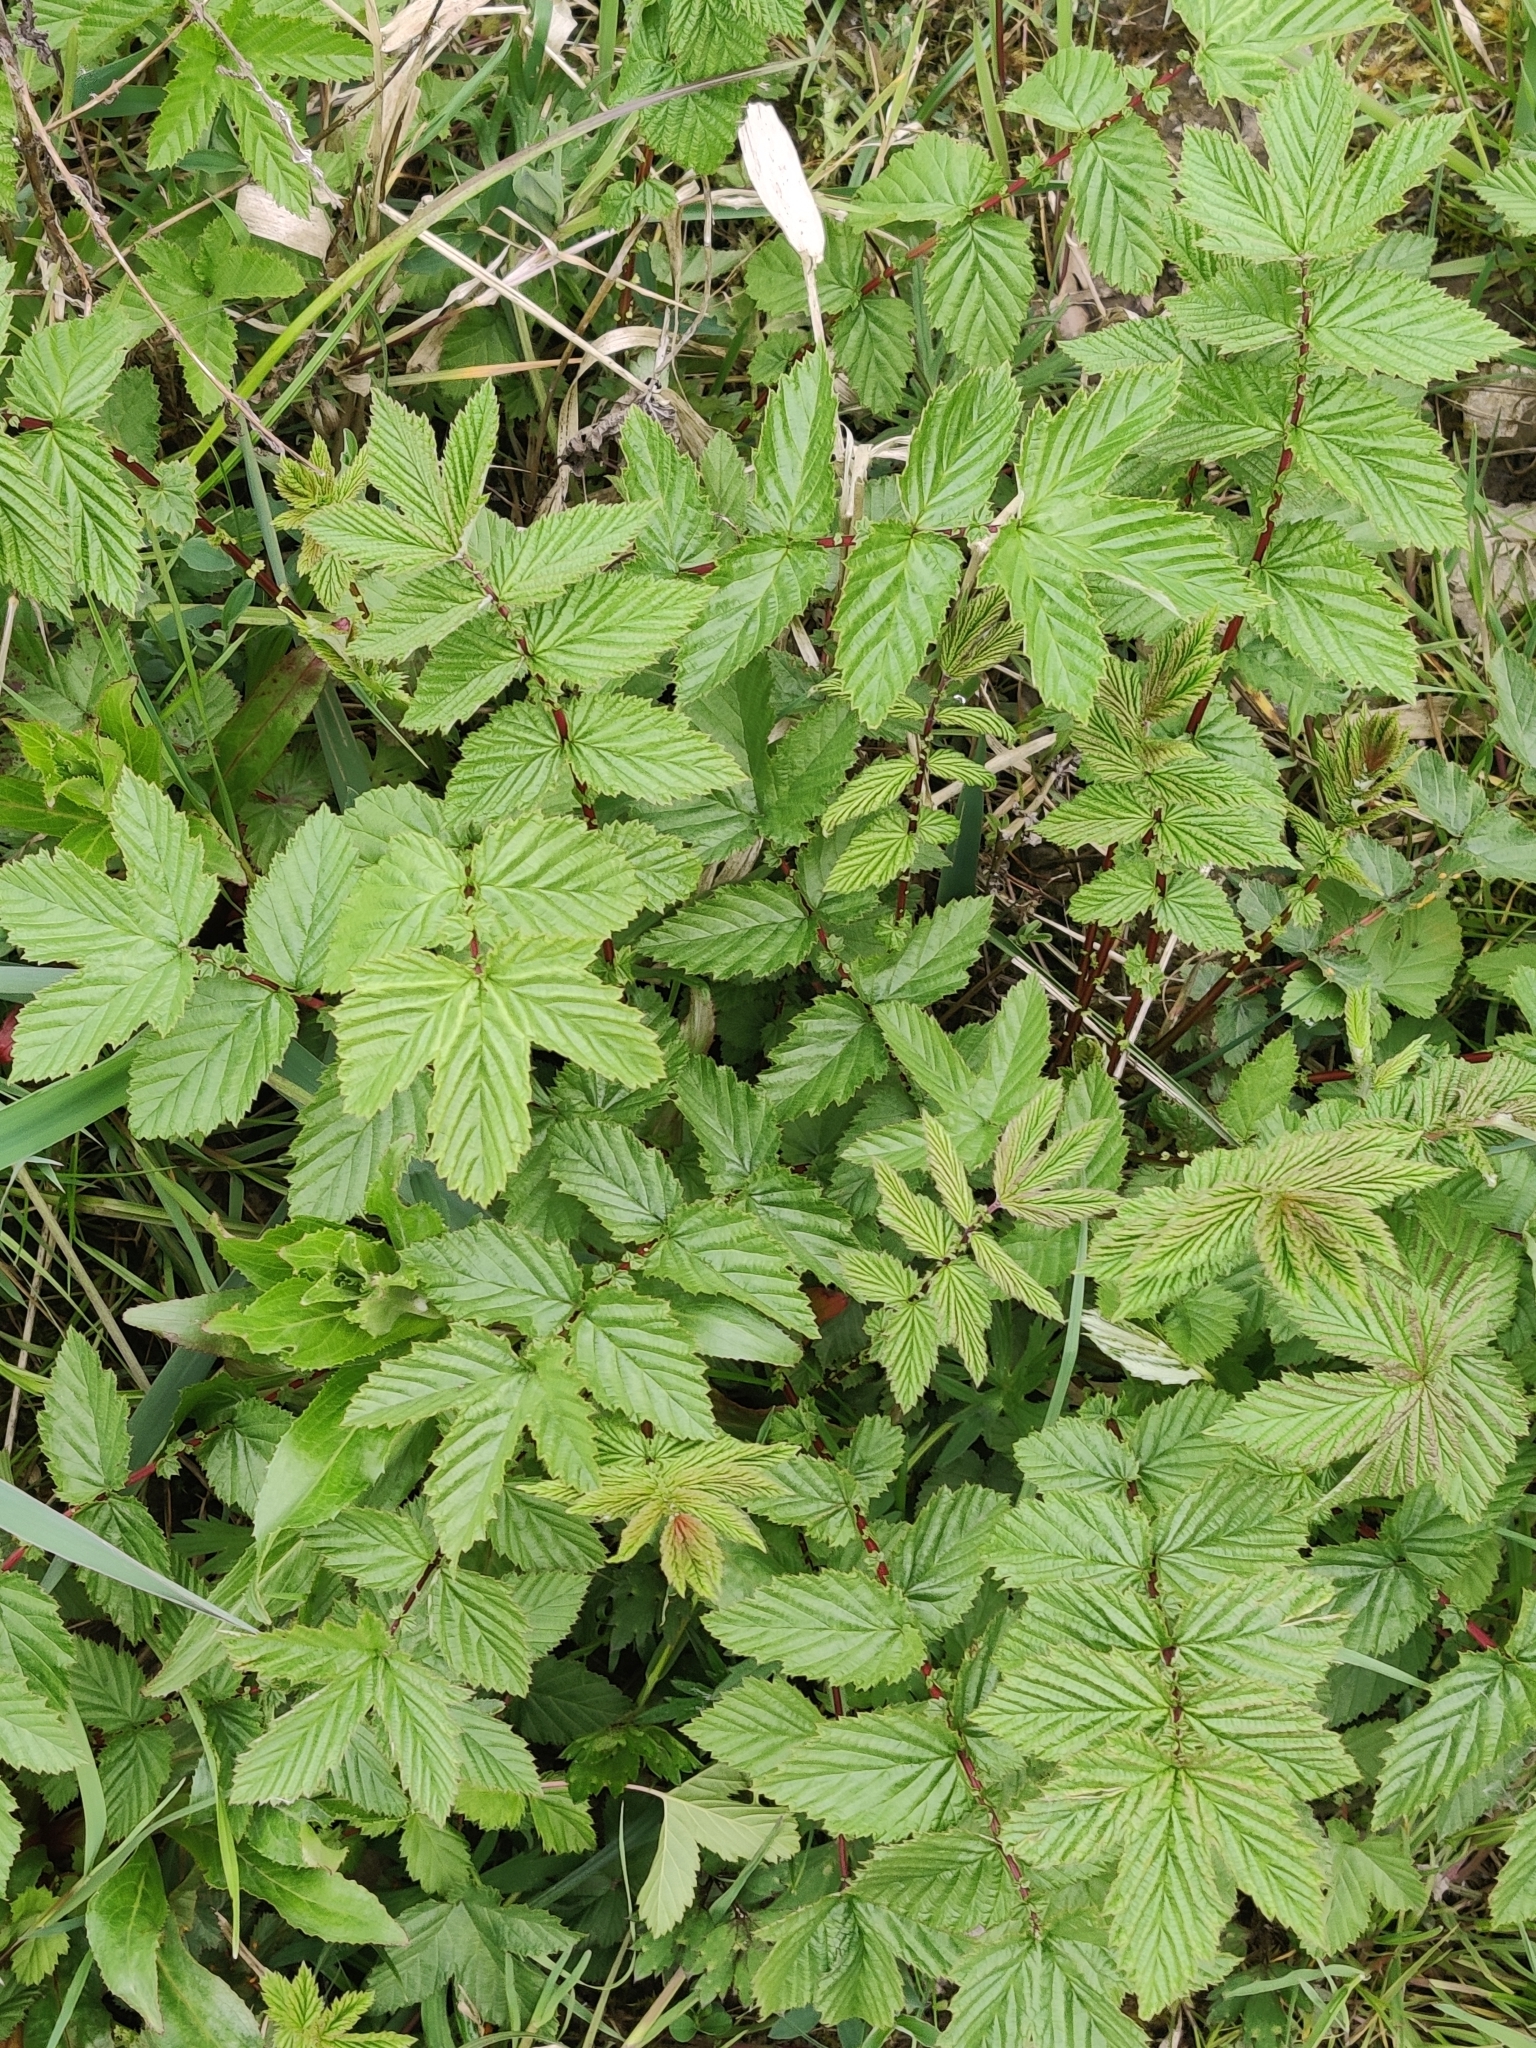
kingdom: Plantae
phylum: Tracheophyta
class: Magnoliopsida
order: Rosales
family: Rosaceae
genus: Filipendula
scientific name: Filipendula ulmaria
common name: Meadowsweet
